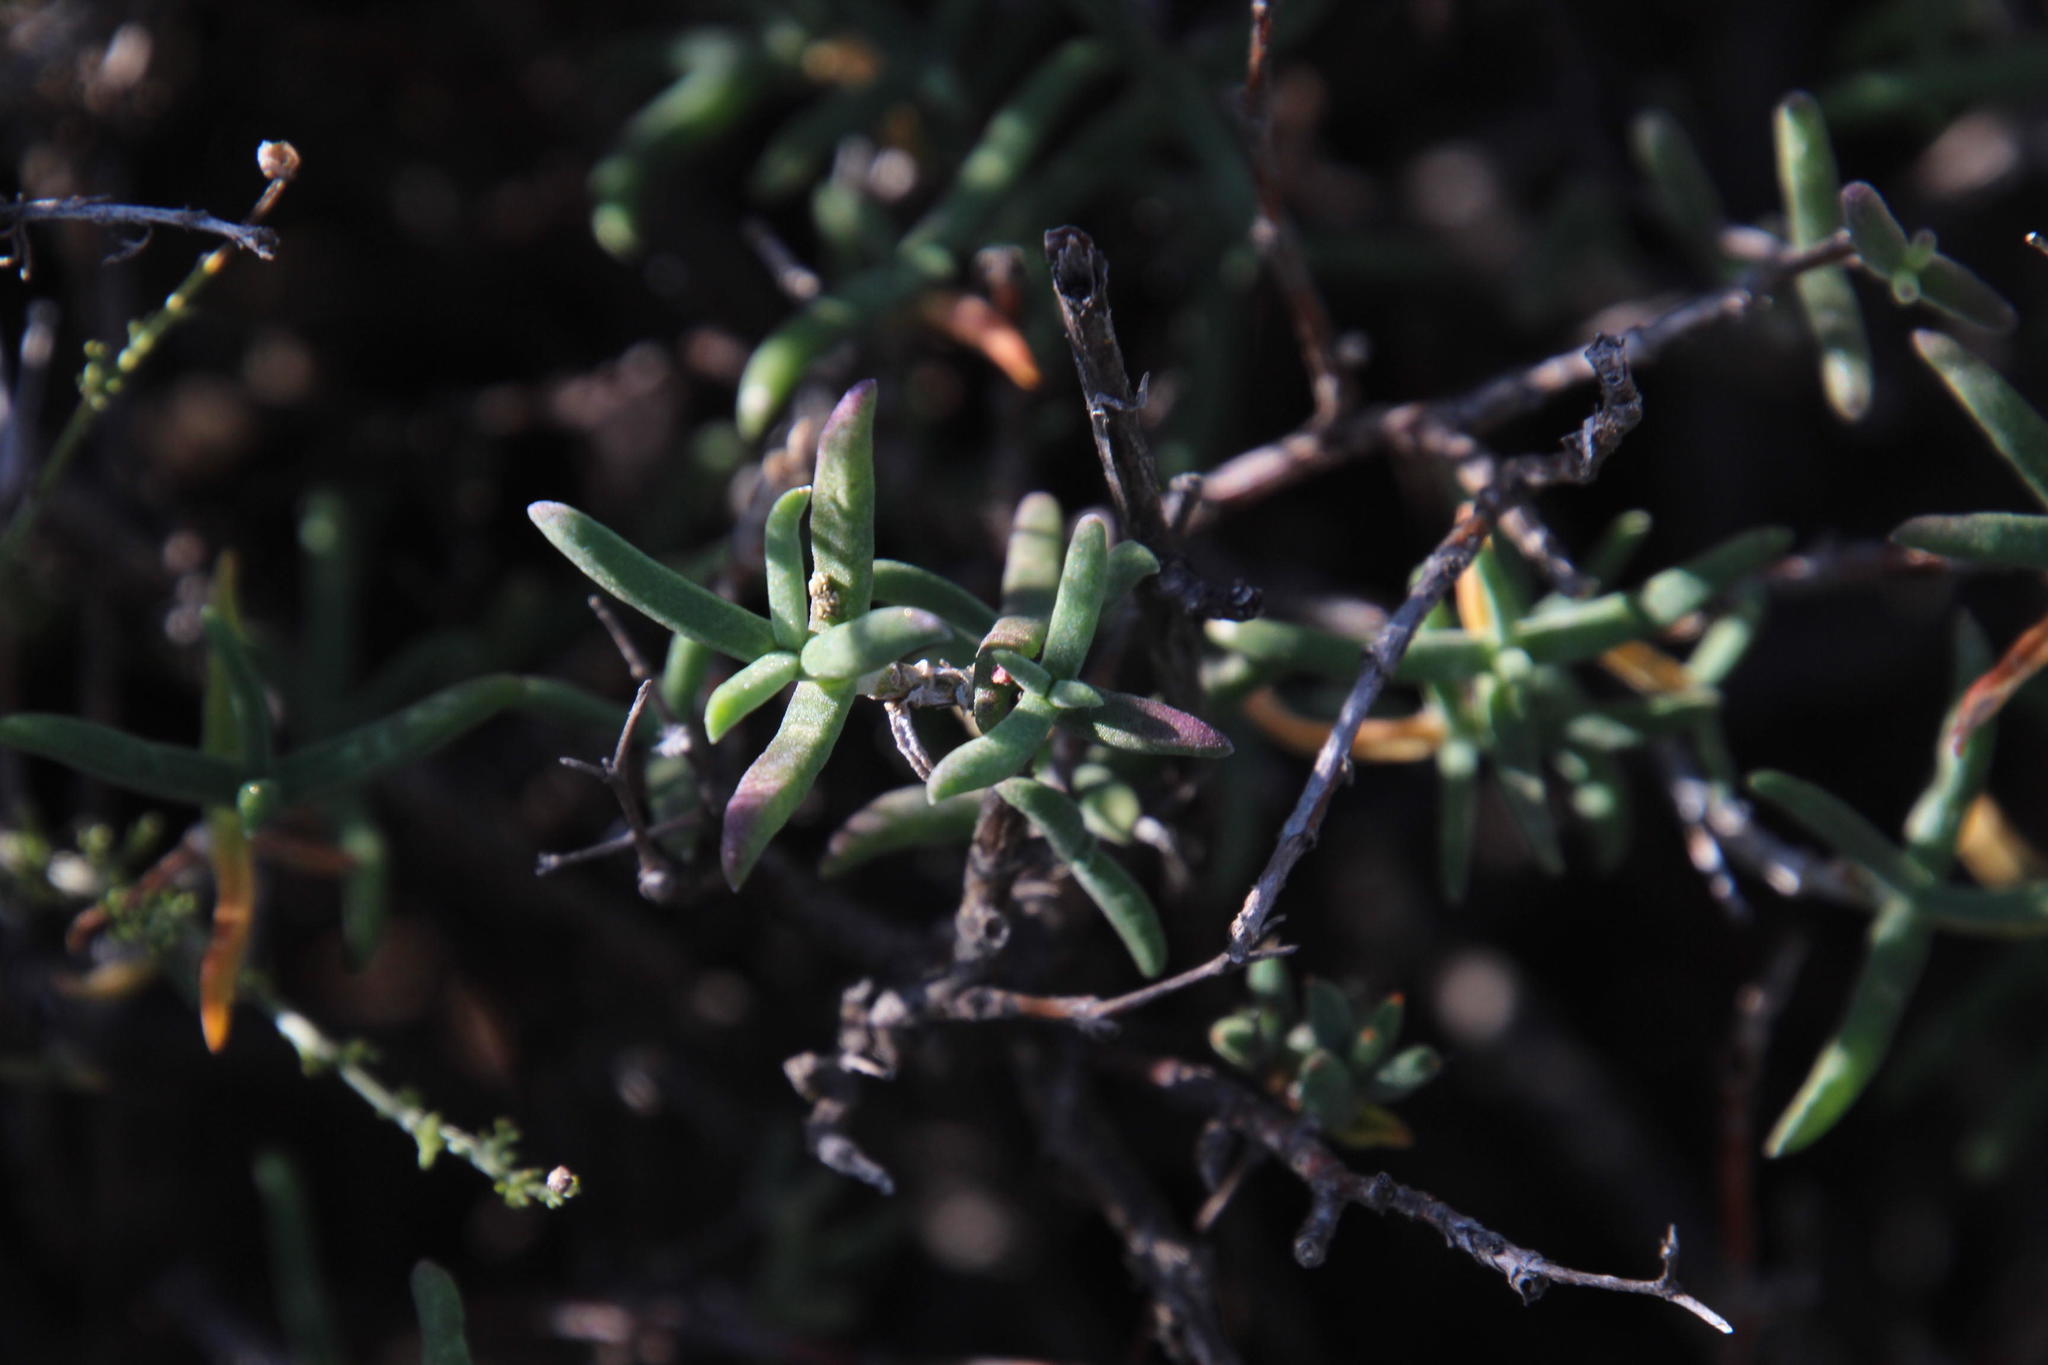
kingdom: Plantae
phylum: Tracheophyta
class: Magnoliopsida
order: Caryophyllales
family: Aizoaceae
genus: Mestoklema
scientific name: Mestoklema tuberosum
